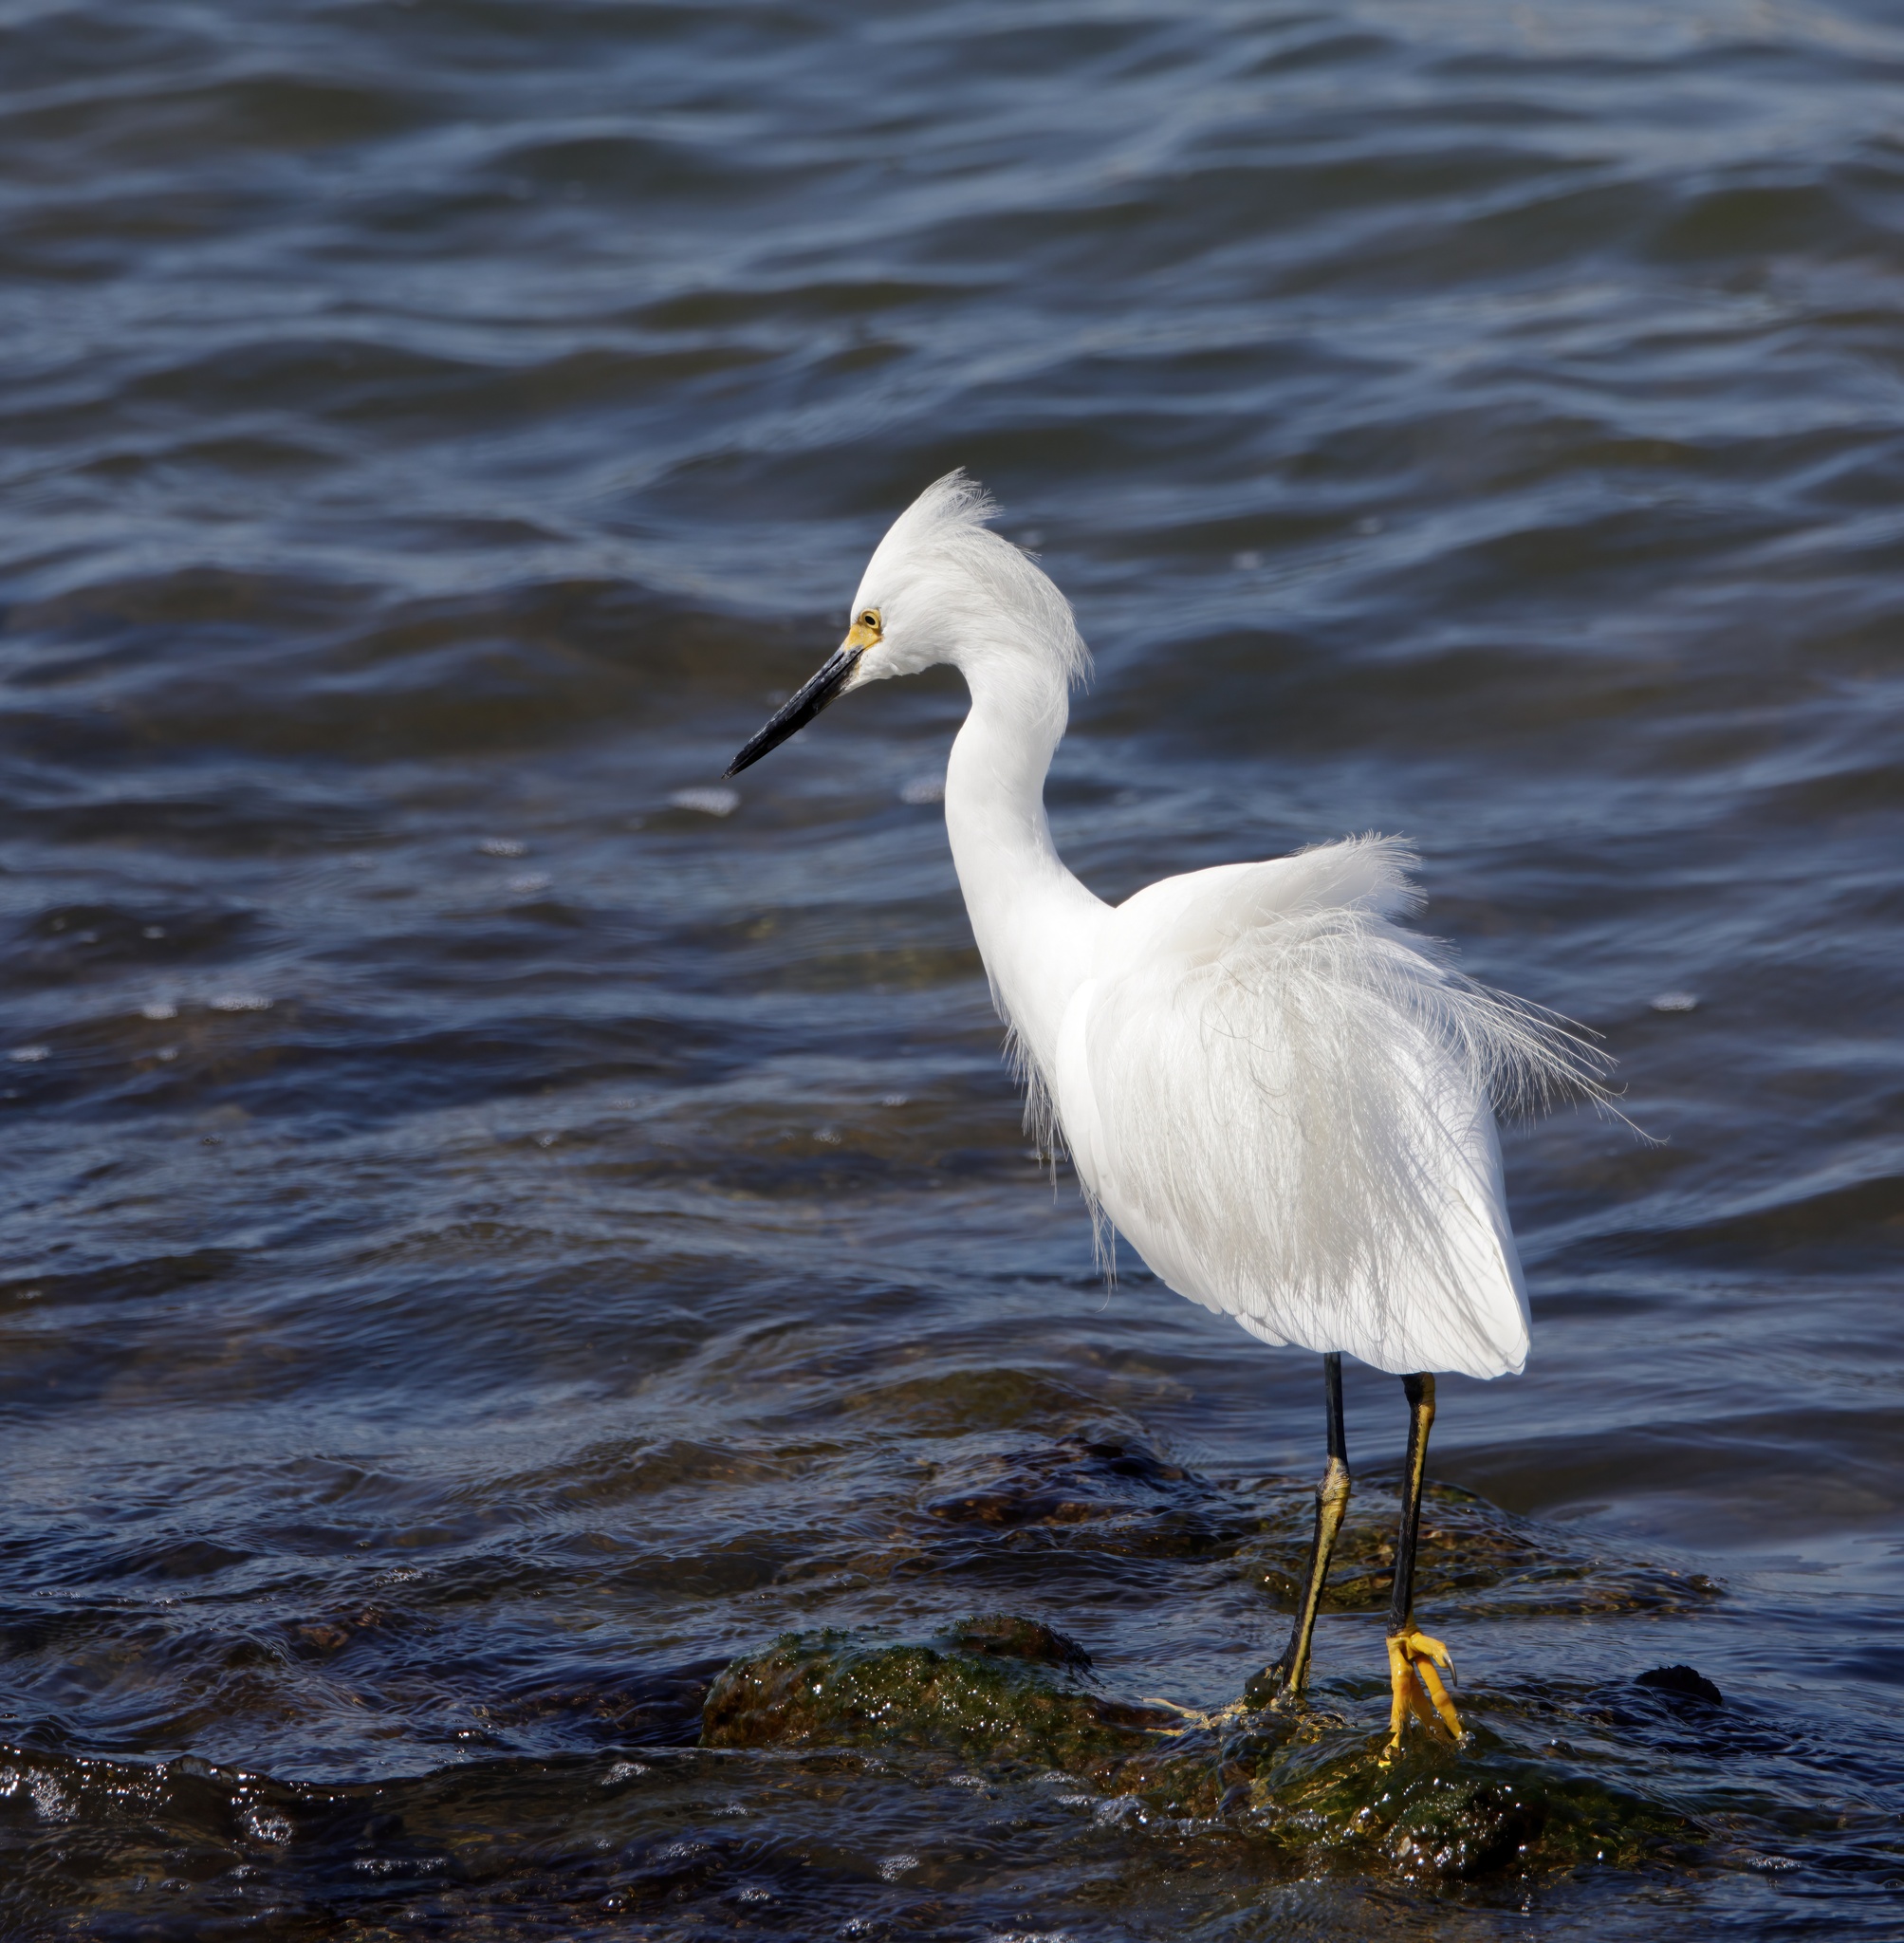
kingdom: Animalia
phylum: Chordata
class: Aves
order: Pelecaniformes
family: Ardeidae
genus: Egretta
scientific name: Egretta thula
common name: Snowy egret
